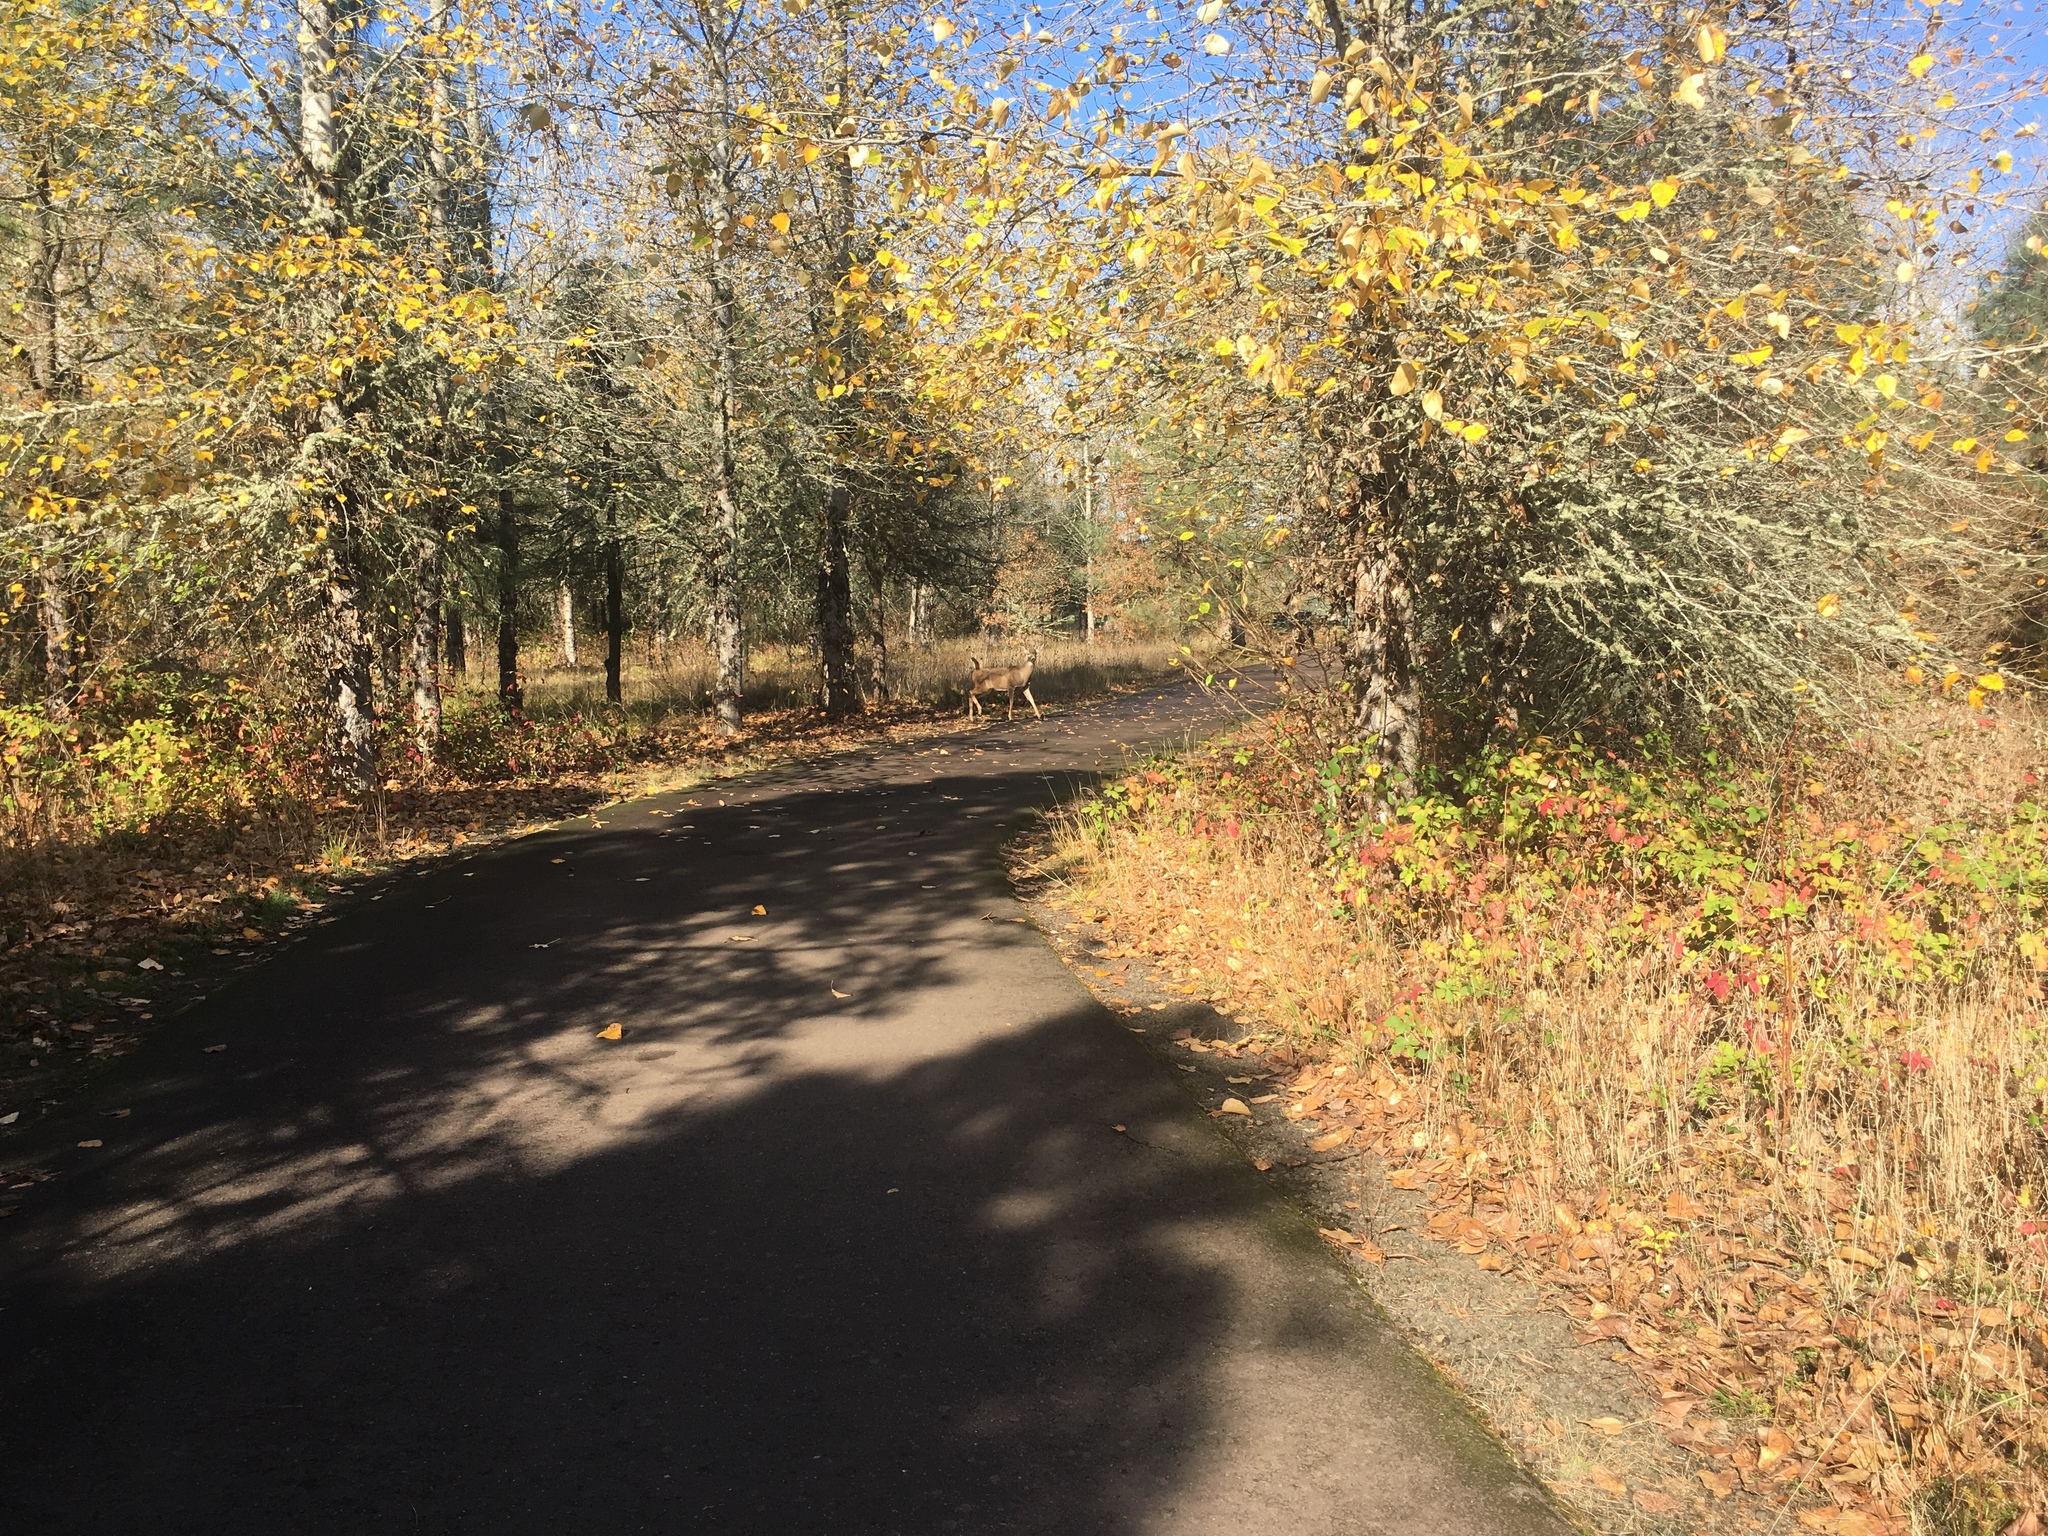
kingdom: Animalia
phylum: Chordata
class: Mammalia
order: Artiodactyla
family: Cervidae
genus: Odocoileus
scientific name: Odocoileus hemionus
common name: Mule deer
